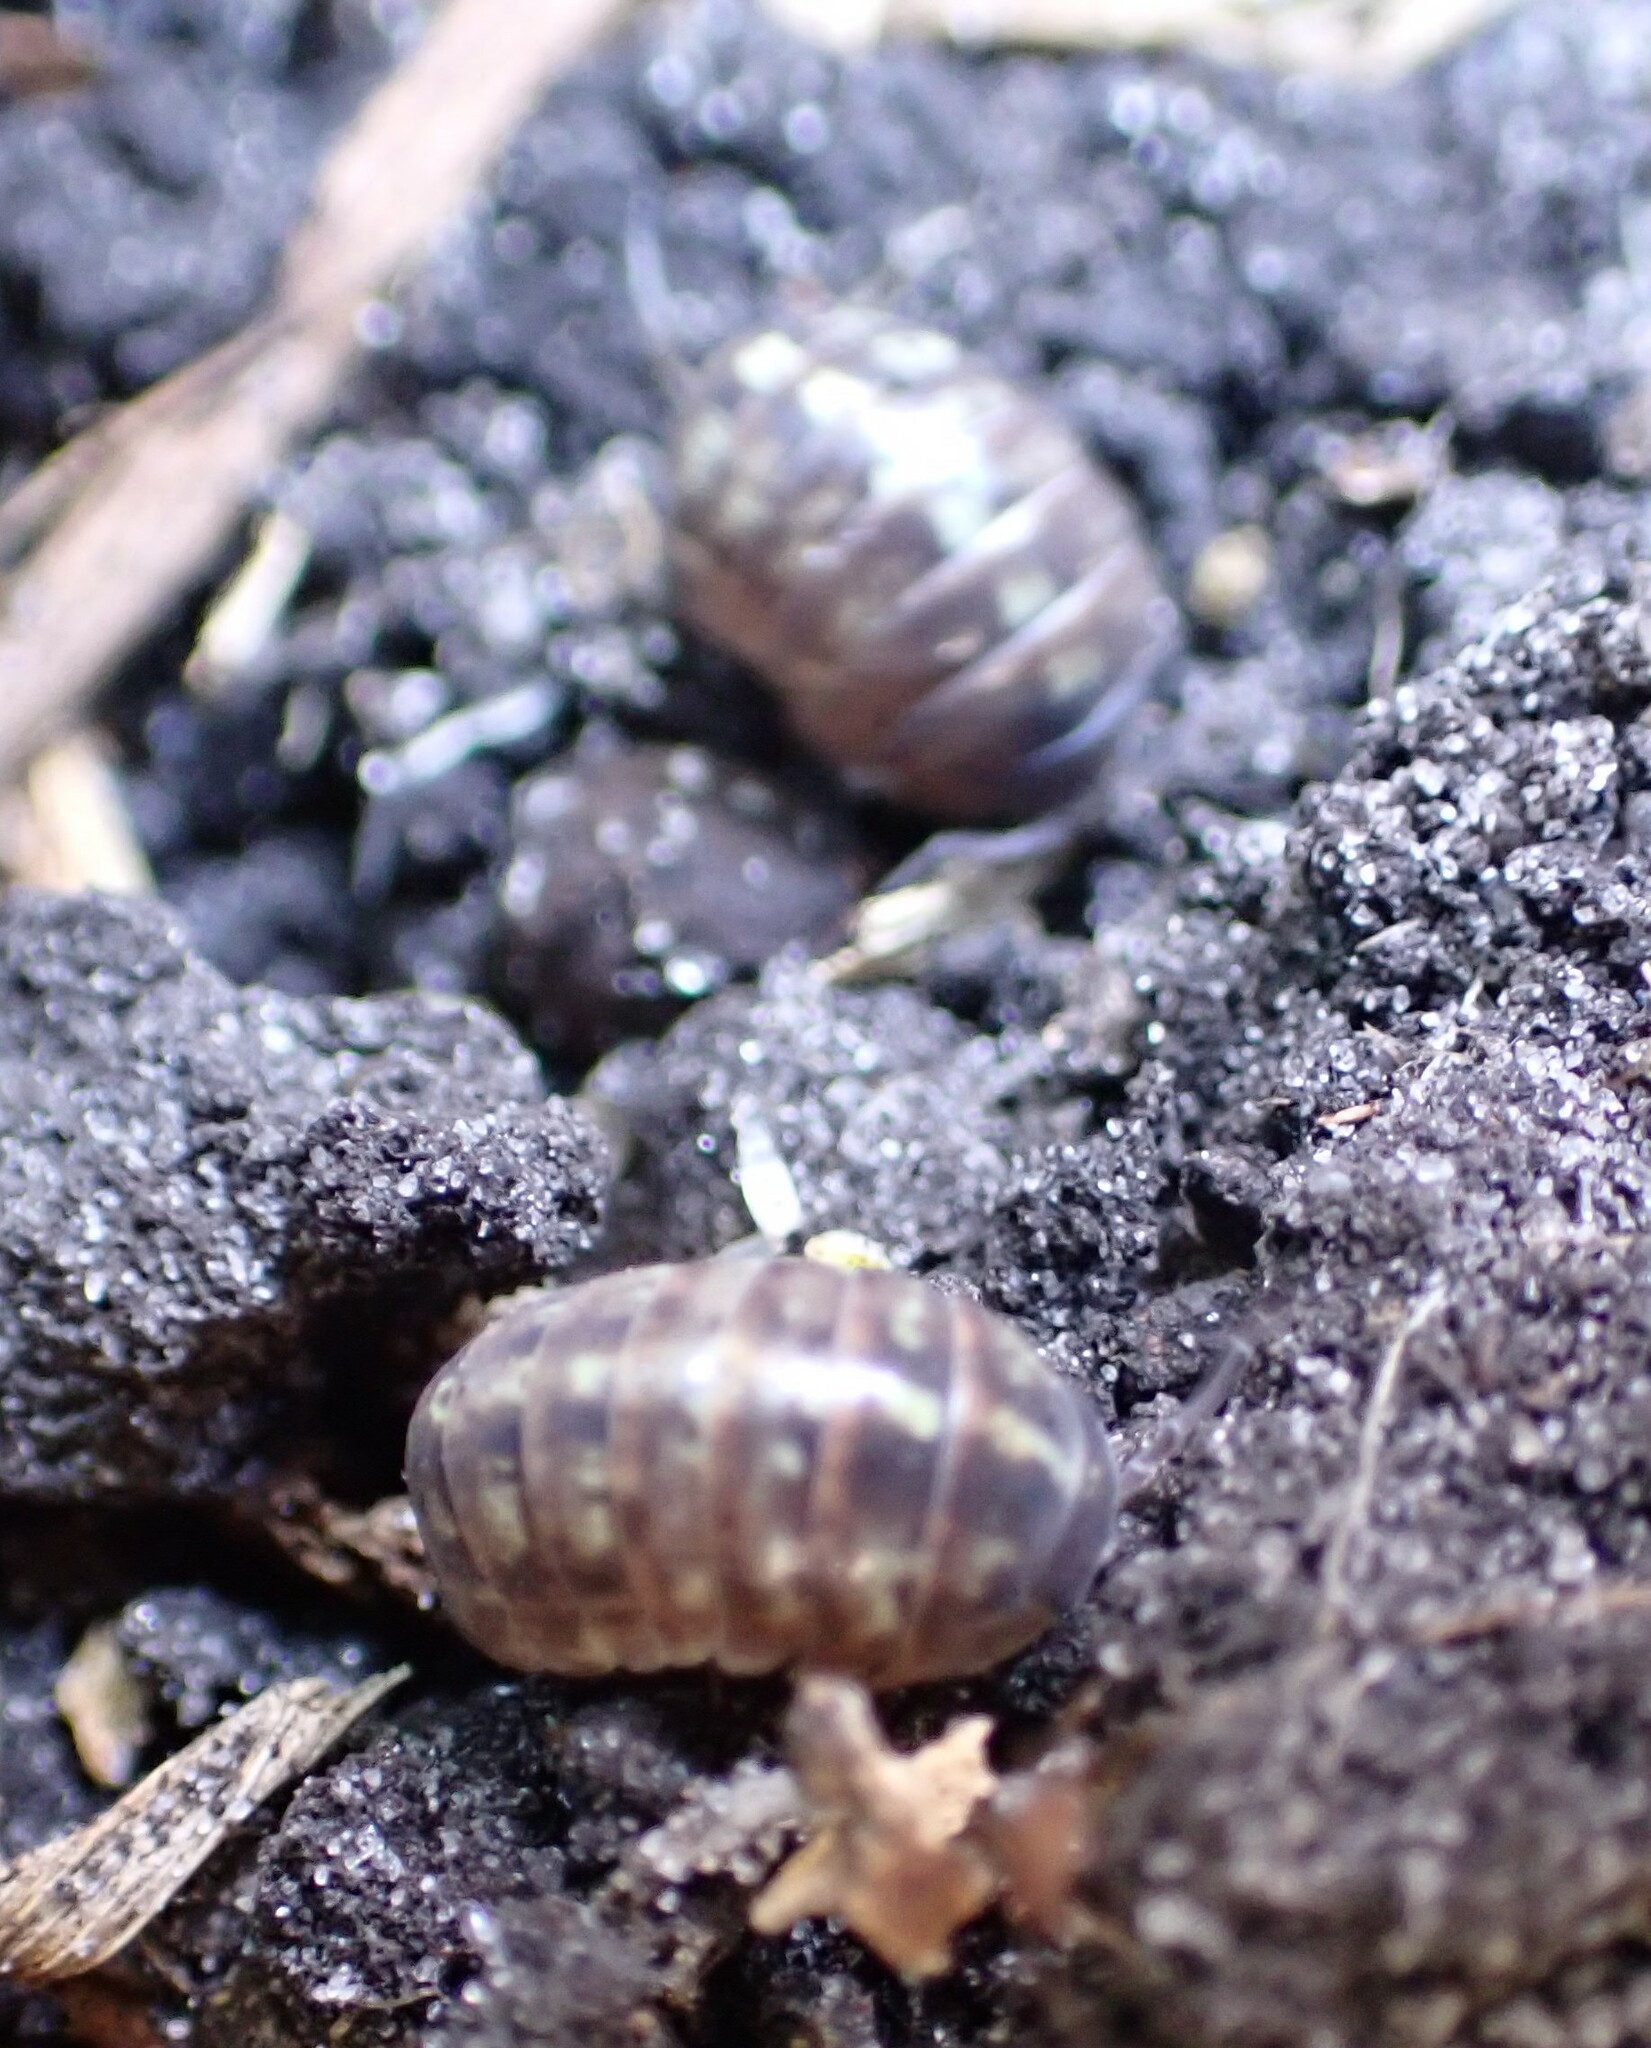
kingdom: Animalia
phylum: Arthropoda
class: Malacostraca
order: Isopoda
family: Armadillidiidae
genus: Armadillidium
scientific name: Armadillidium vulgare
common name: Common pill woodlouse
